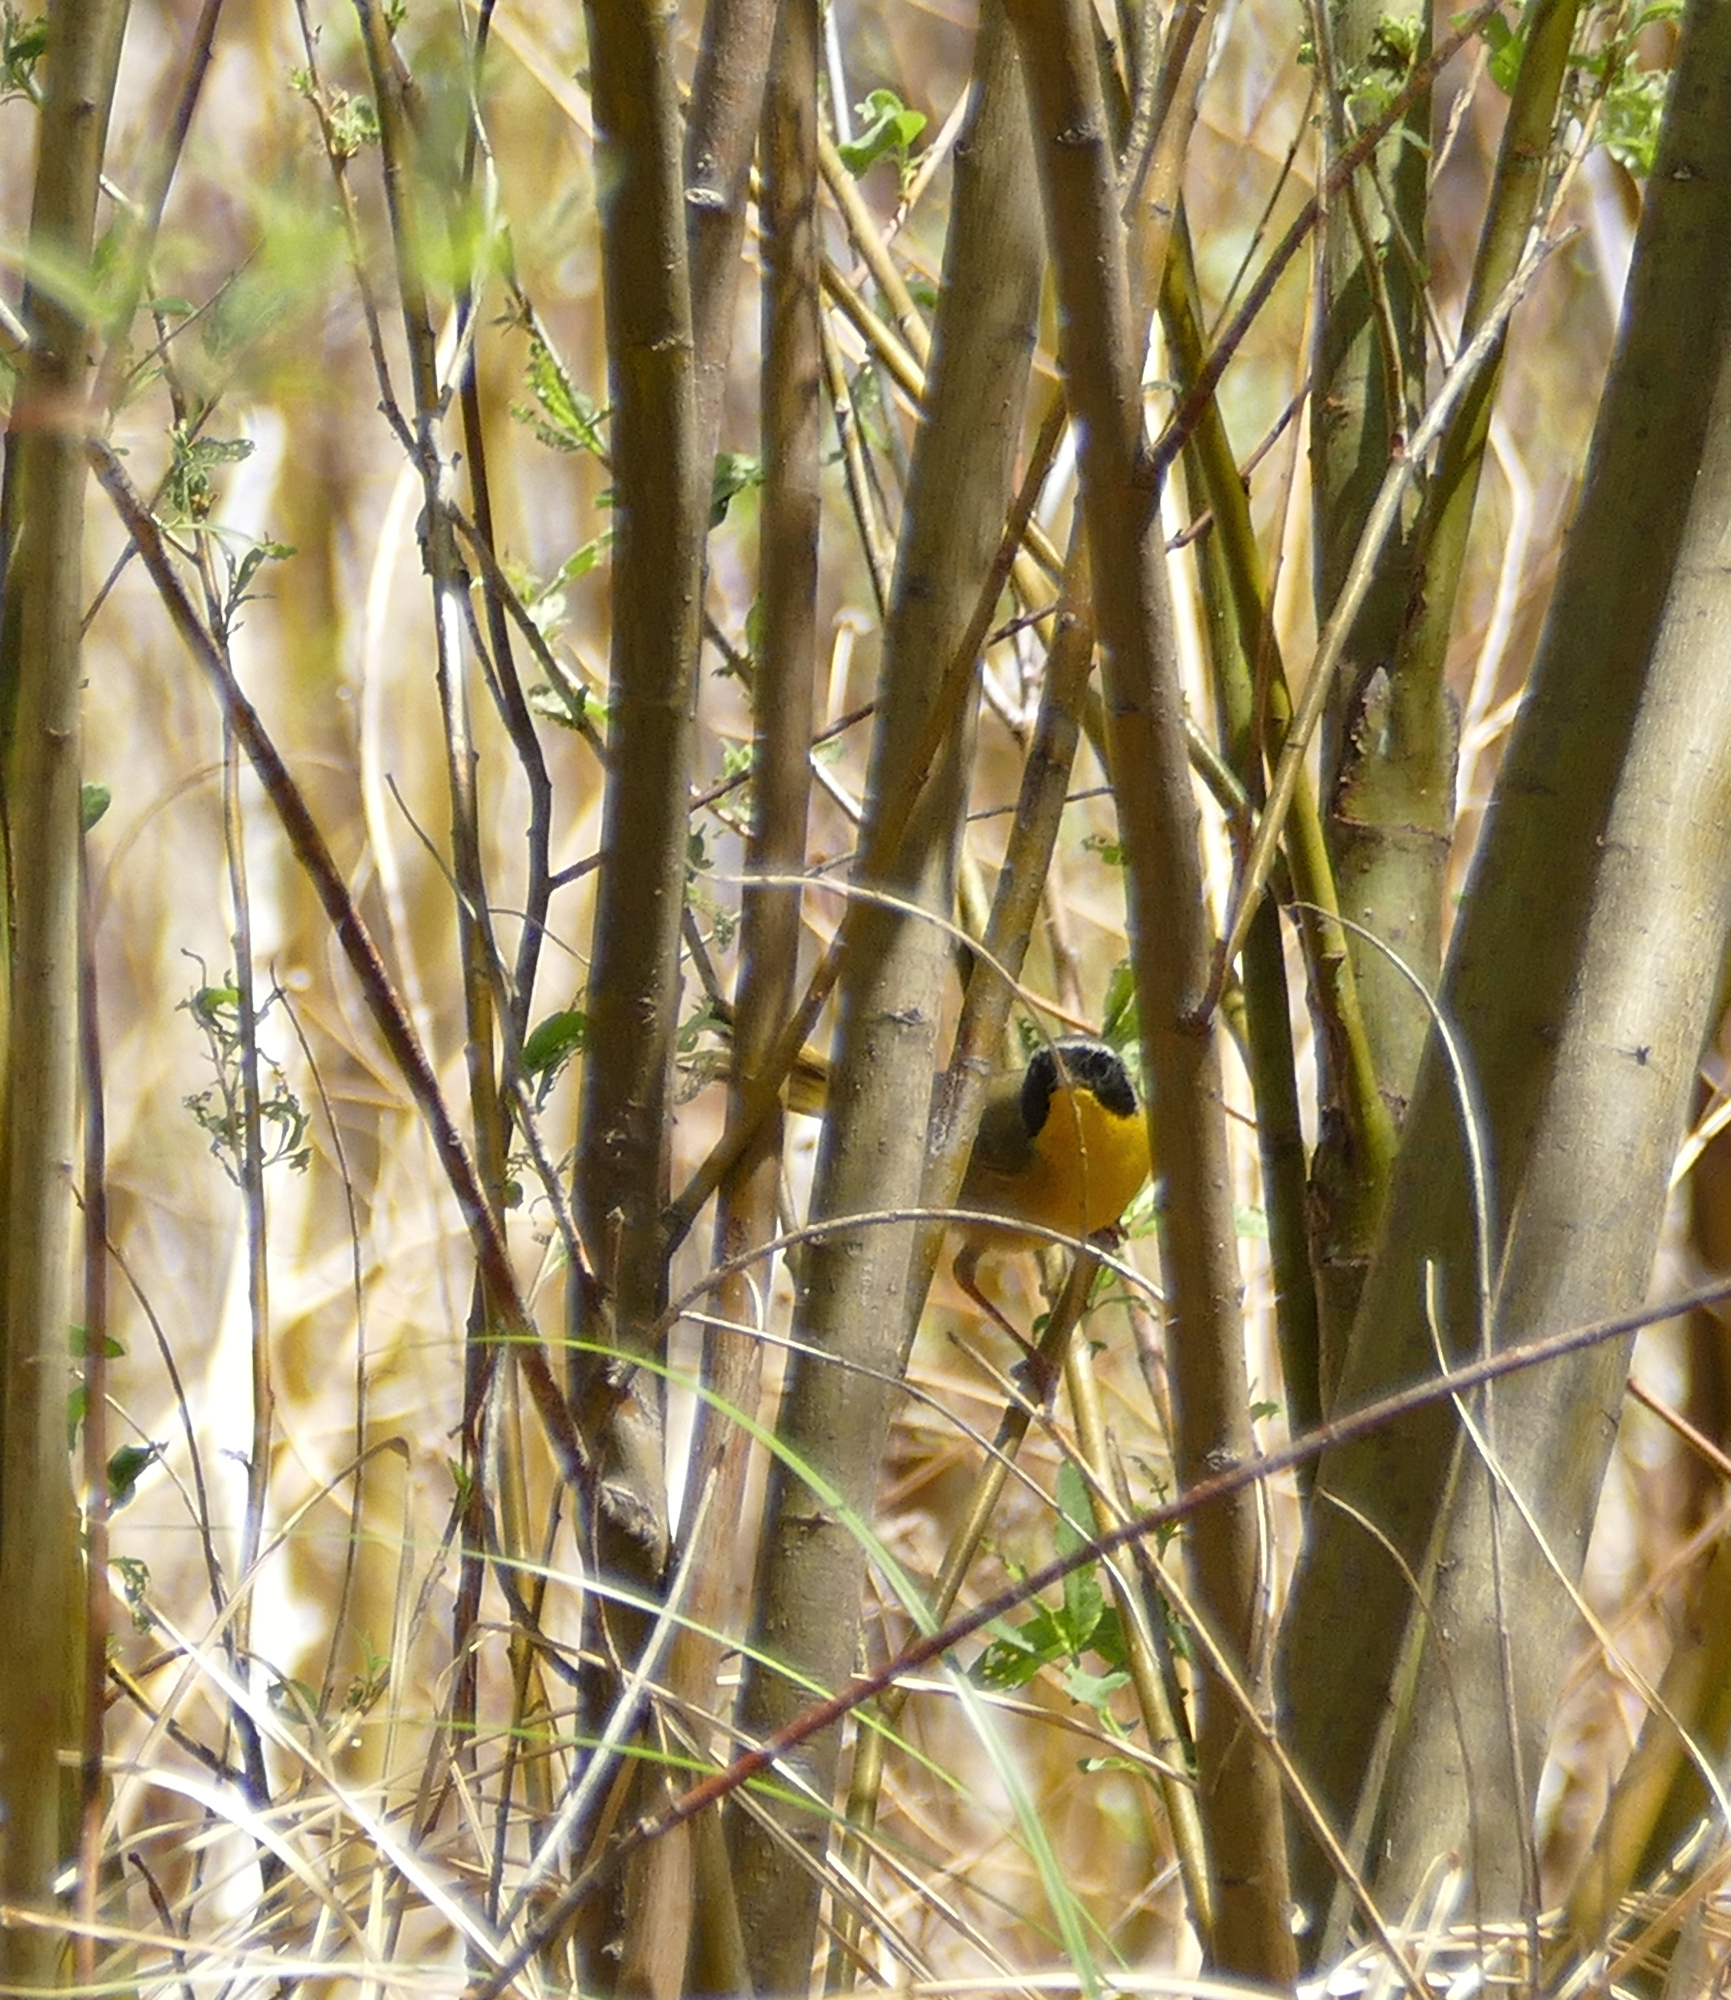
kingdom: Animalia
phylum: Chordata
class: Aves
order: Passeriformes
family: Parulidae
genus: Geothlypis
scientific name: Geothlypis trichas
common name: Common yellowthroat
